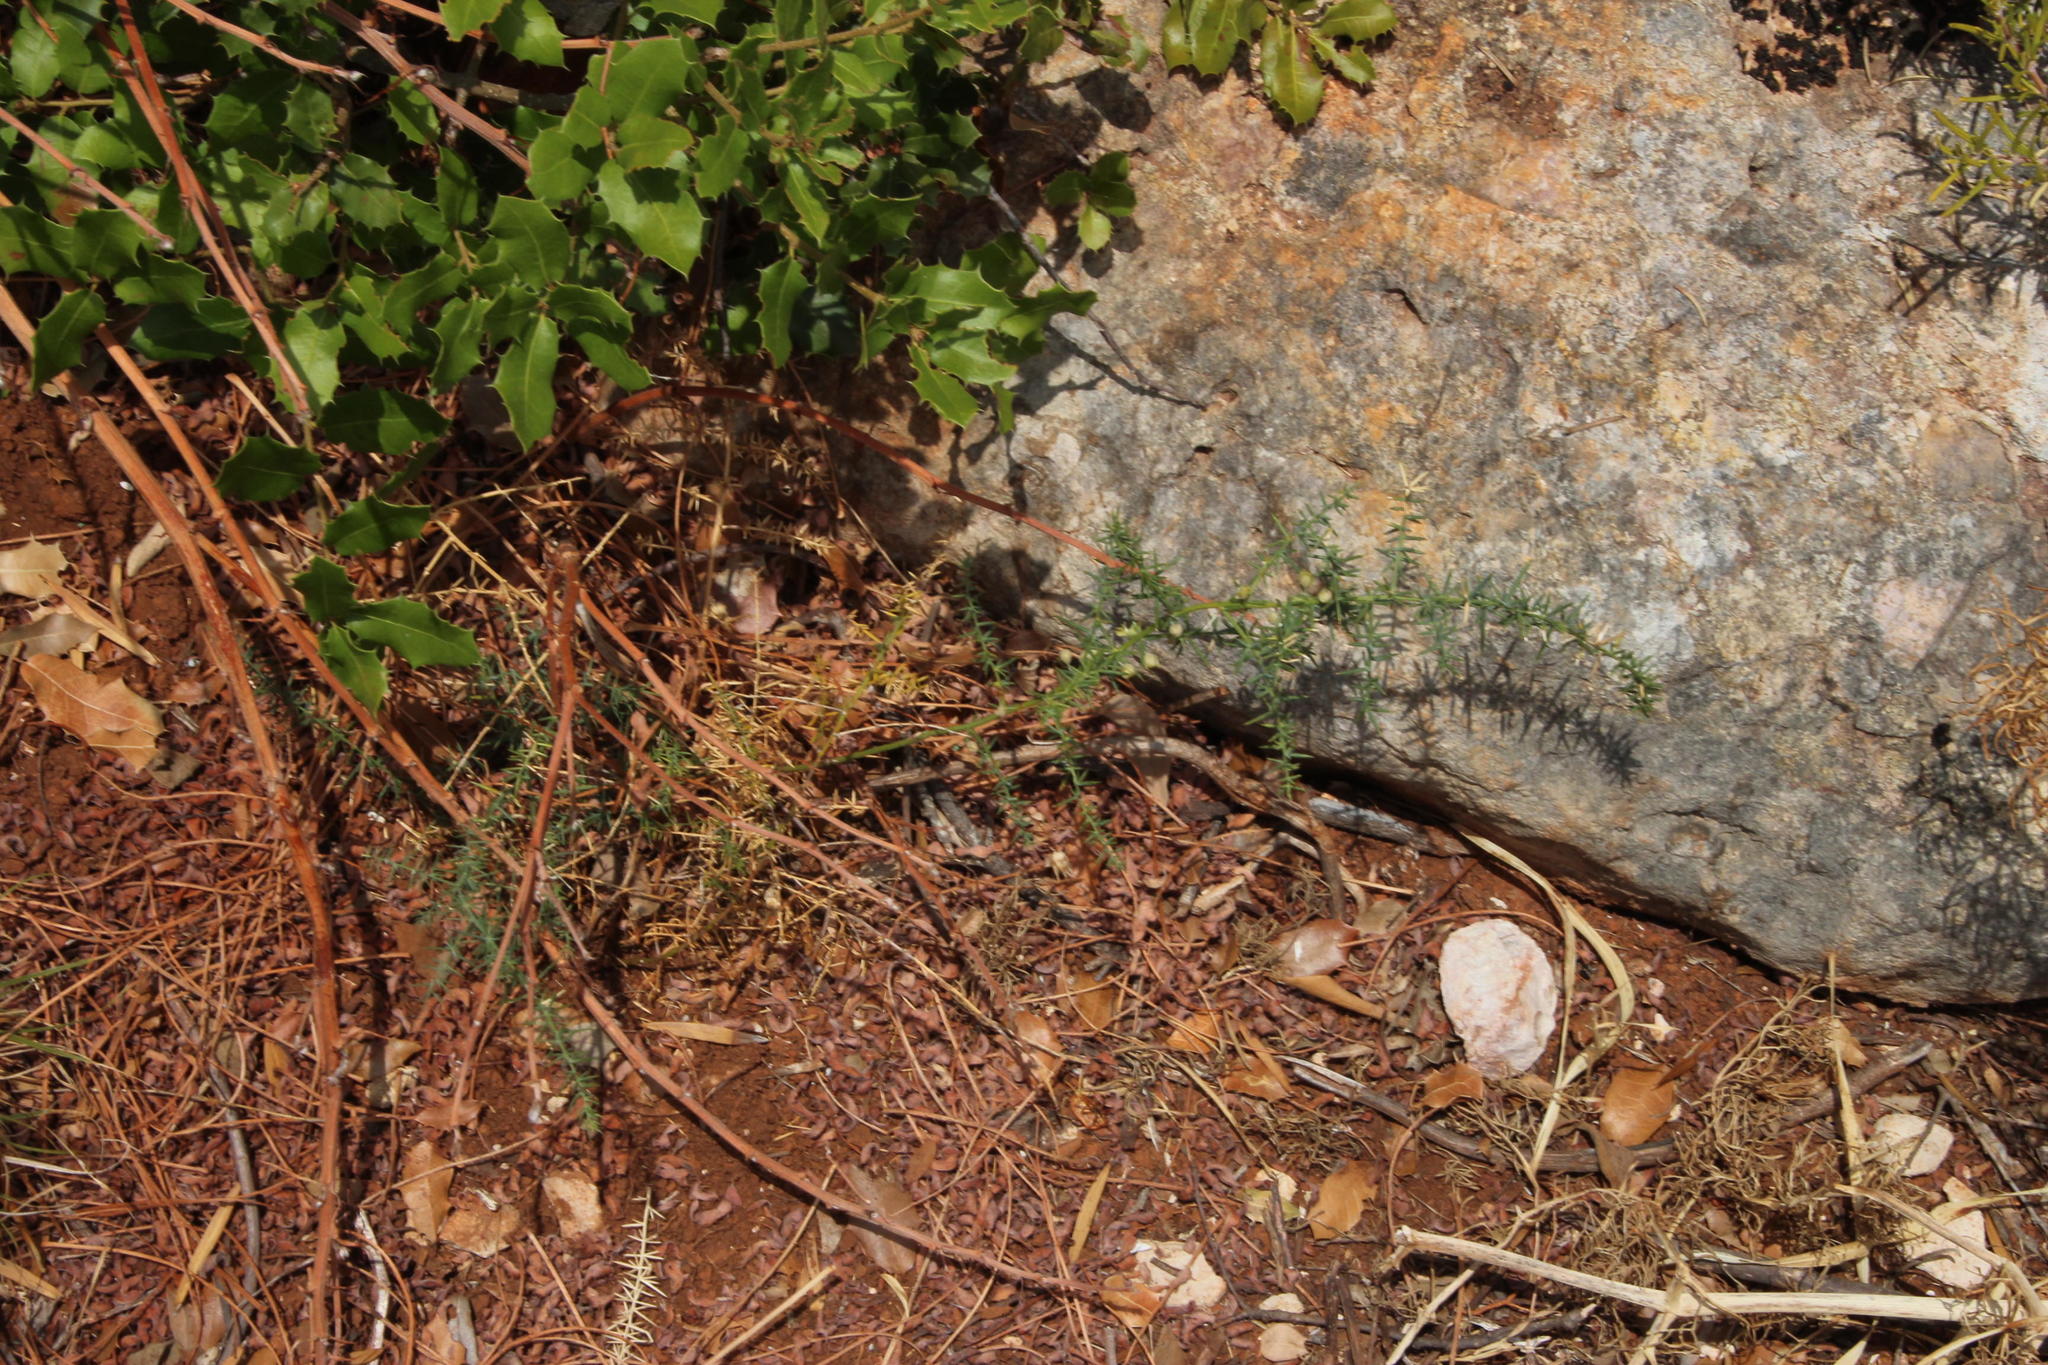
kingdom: Plantae
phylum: Tracheophyta
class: Liliopsida
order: Asparagales
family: Asparagaceae
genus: Asparagus
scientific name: Asparagus acutifolius
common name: Wild asparagus
